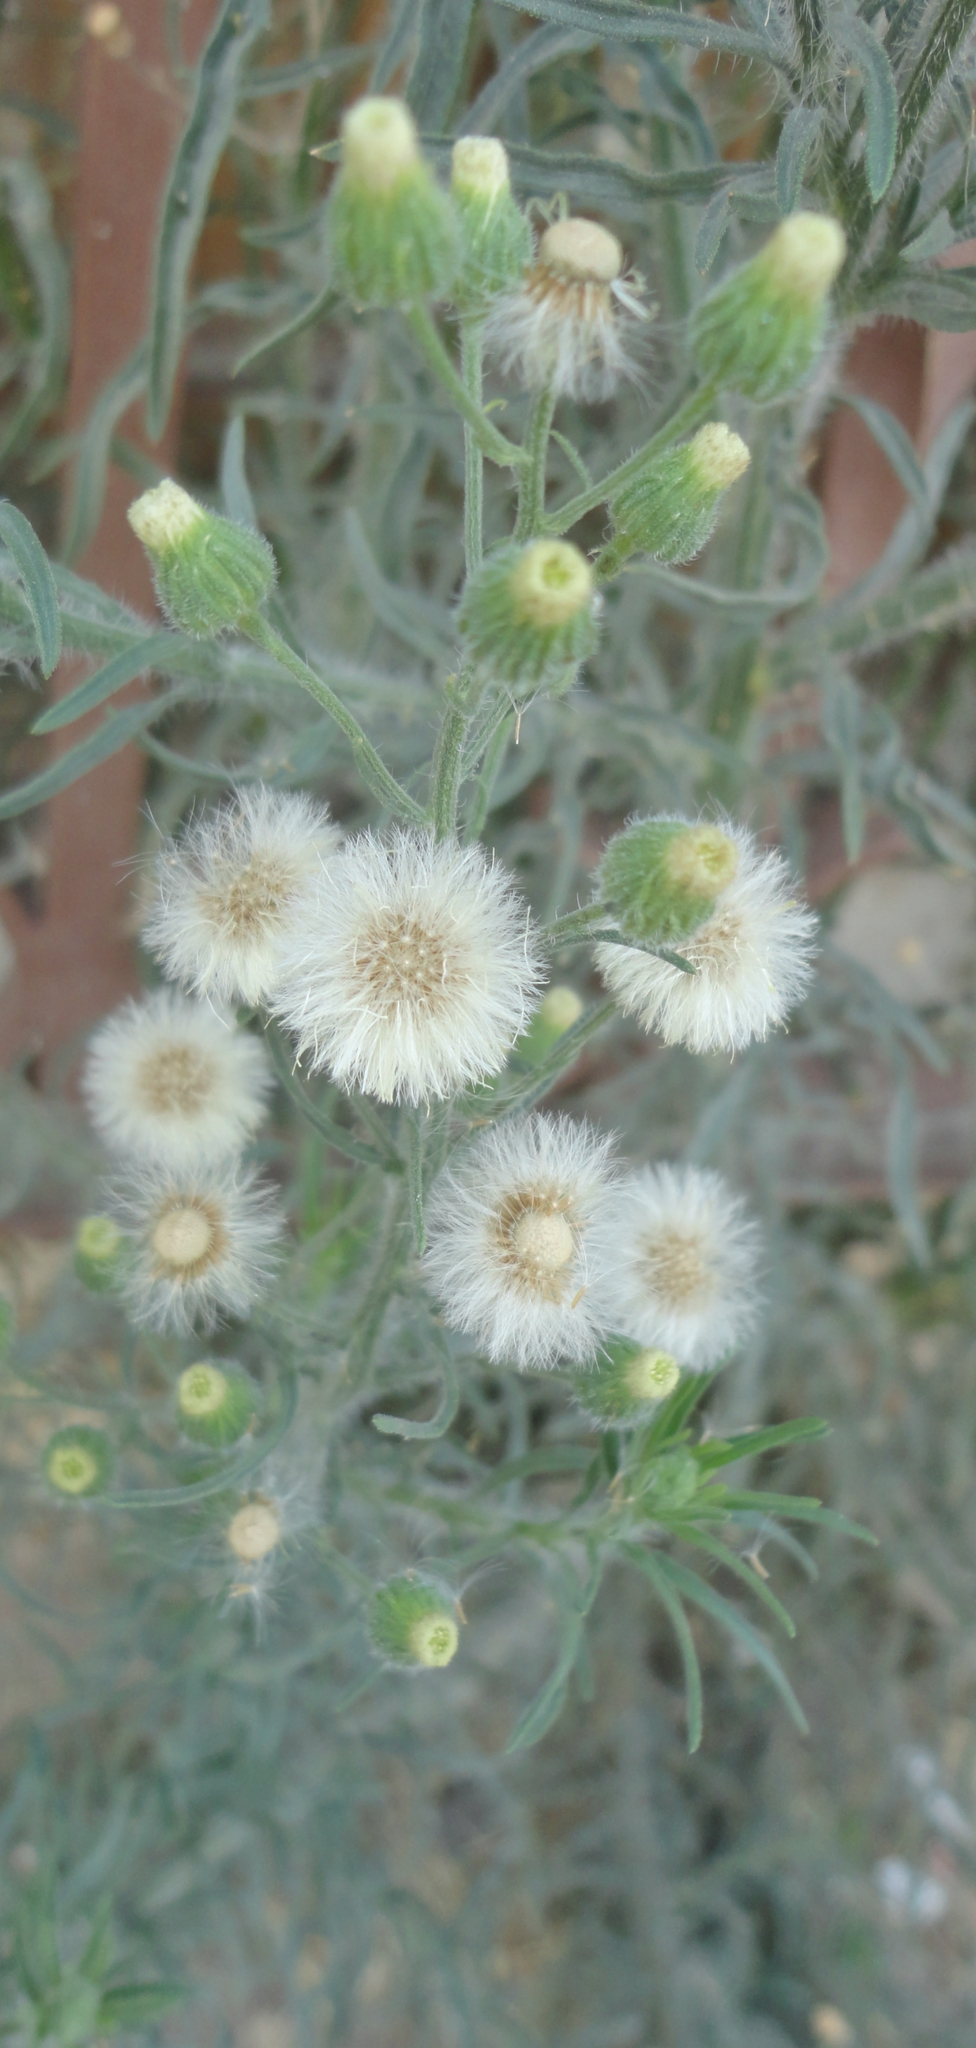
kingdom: Plantae
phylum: Tracheophyta
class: Magnoliopsida
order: Asterales
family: Asteraceae
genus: Erigeron
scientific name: Erigeron bonariensis
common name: Argentine fleabane
